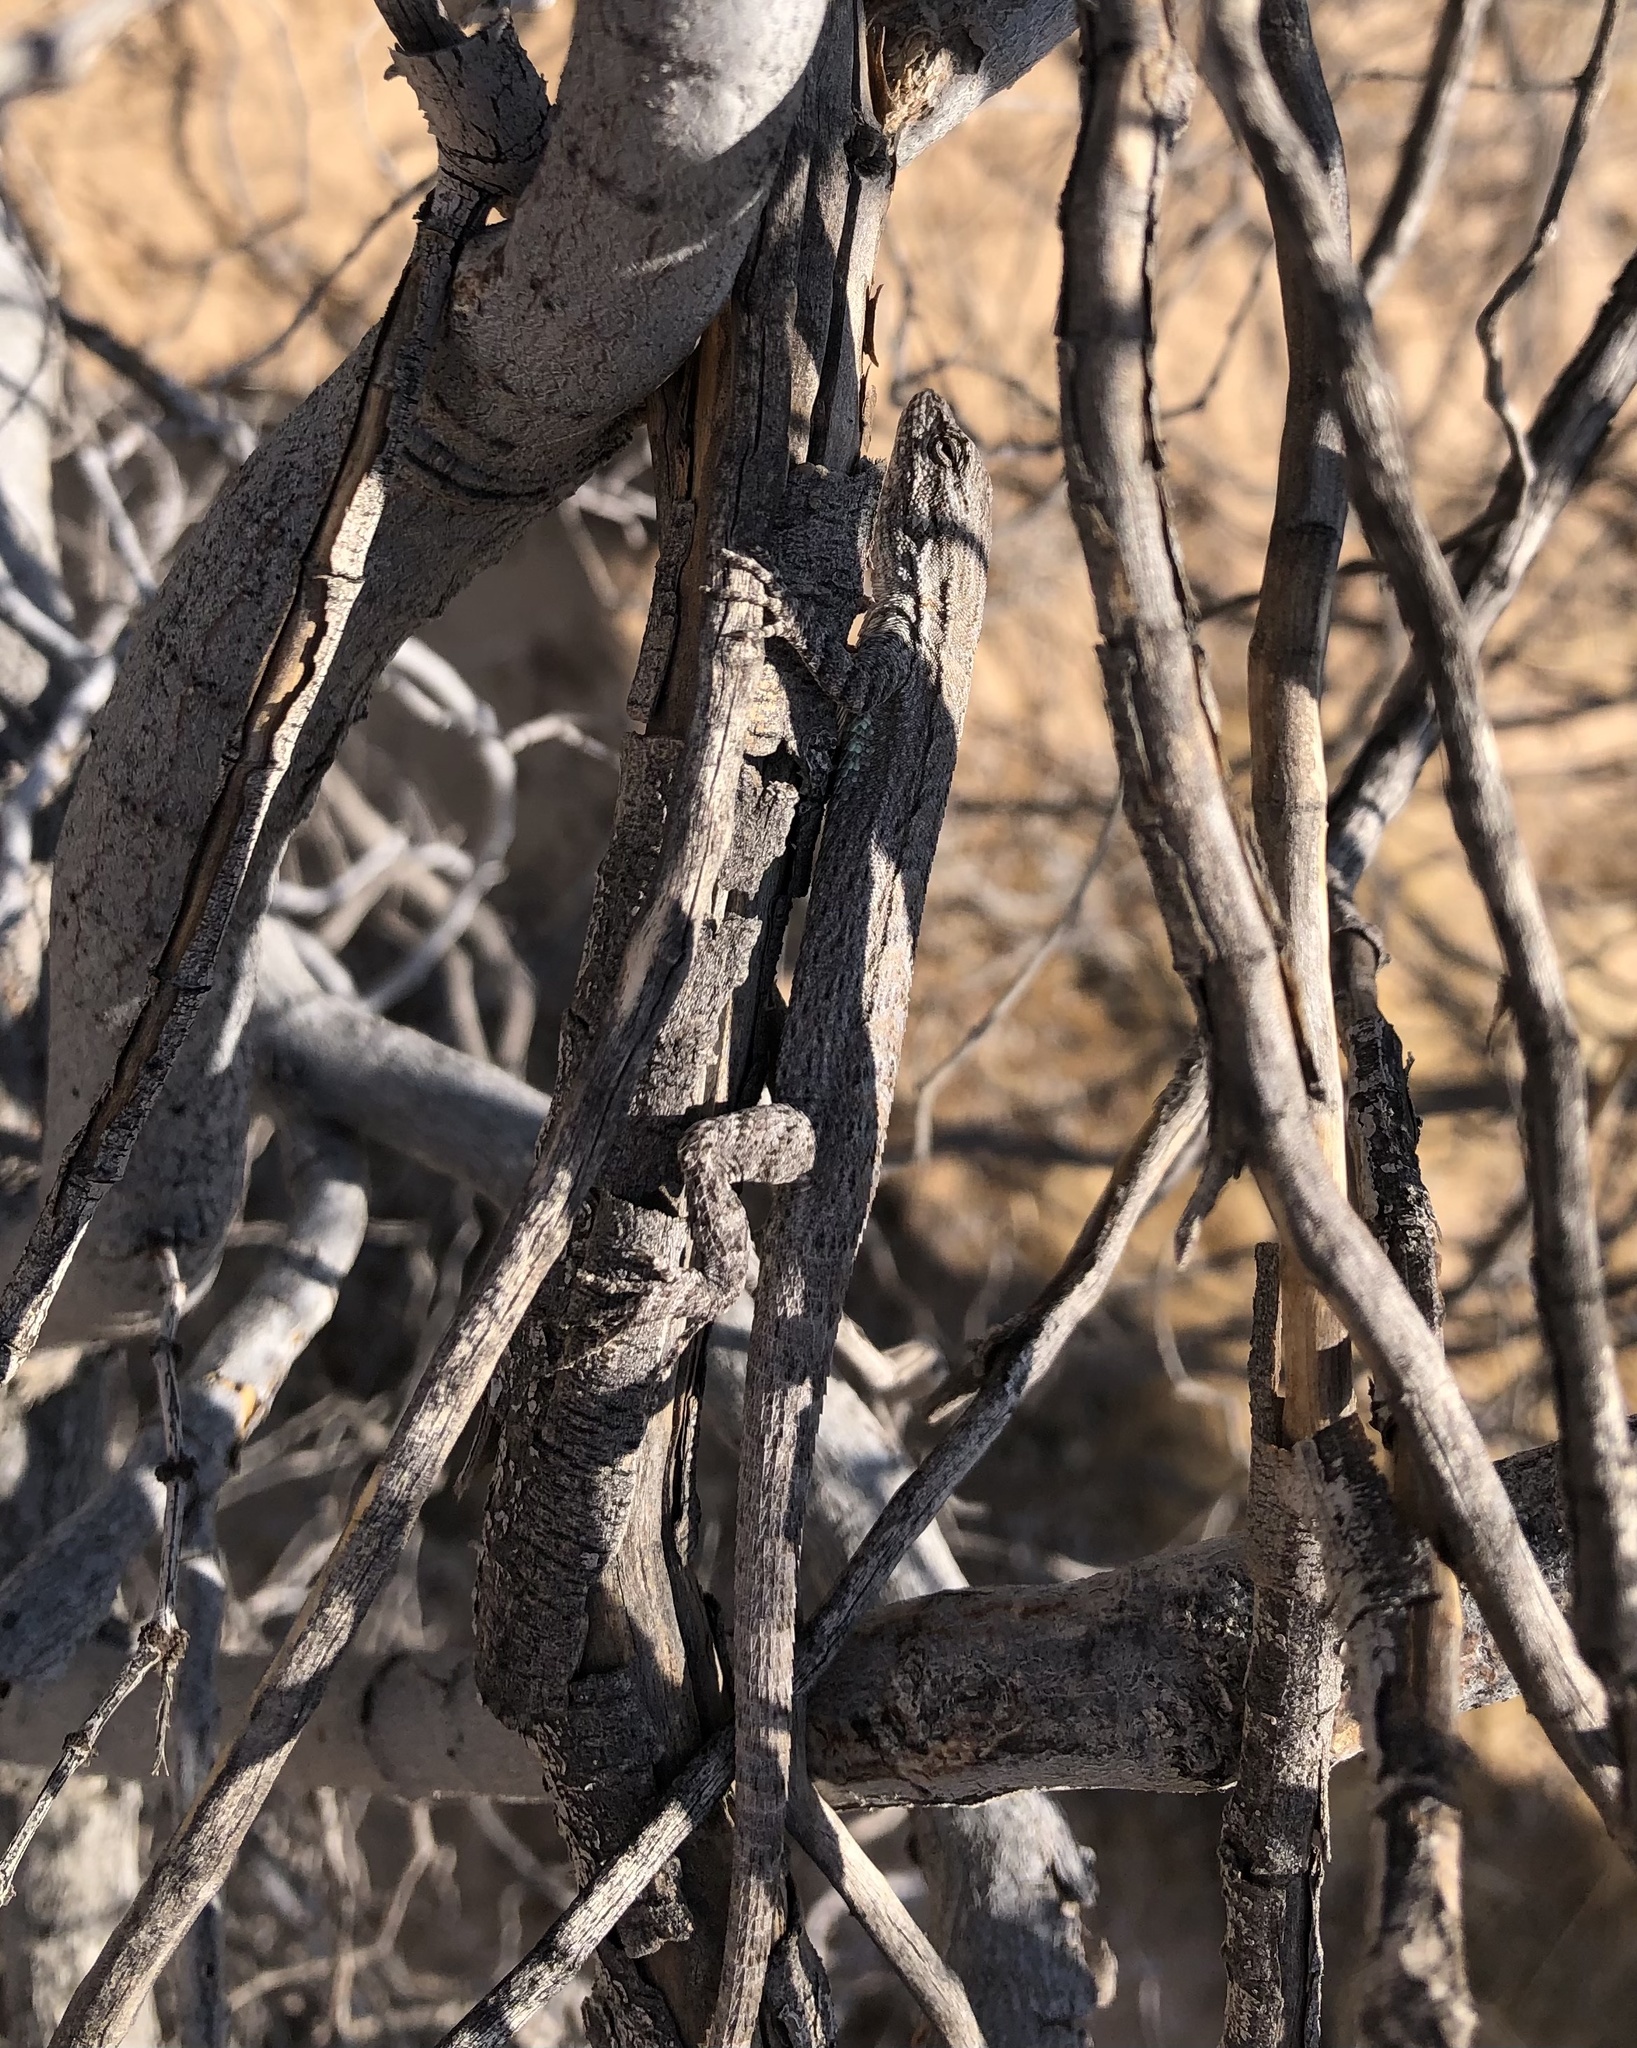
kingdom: Animalia
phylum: Chordata
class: Squamata
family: Phrynosomatidae
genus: Urosaurus
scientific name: Urosaurus graciosus
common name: Long-tailed brush lizard
